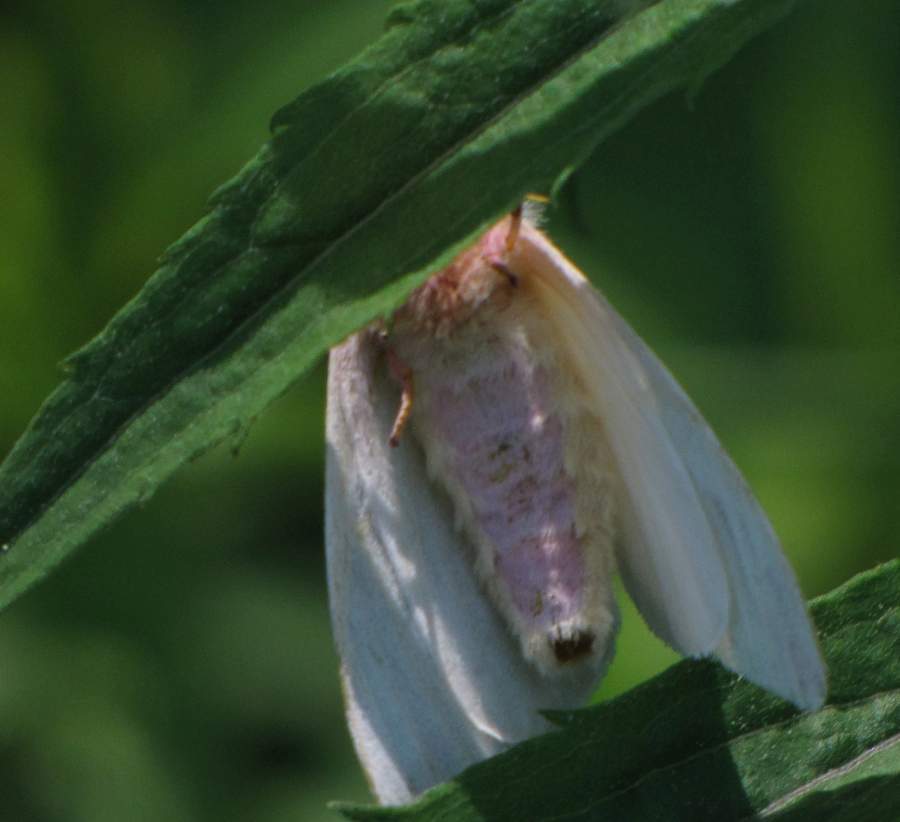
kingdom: Animalia
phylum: Arthropoda
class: Insecta
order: Lepidoptera
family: Saturniidae
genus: Dryocampa
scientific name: Dryocampa rubicunda
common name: Rosy maple moth
